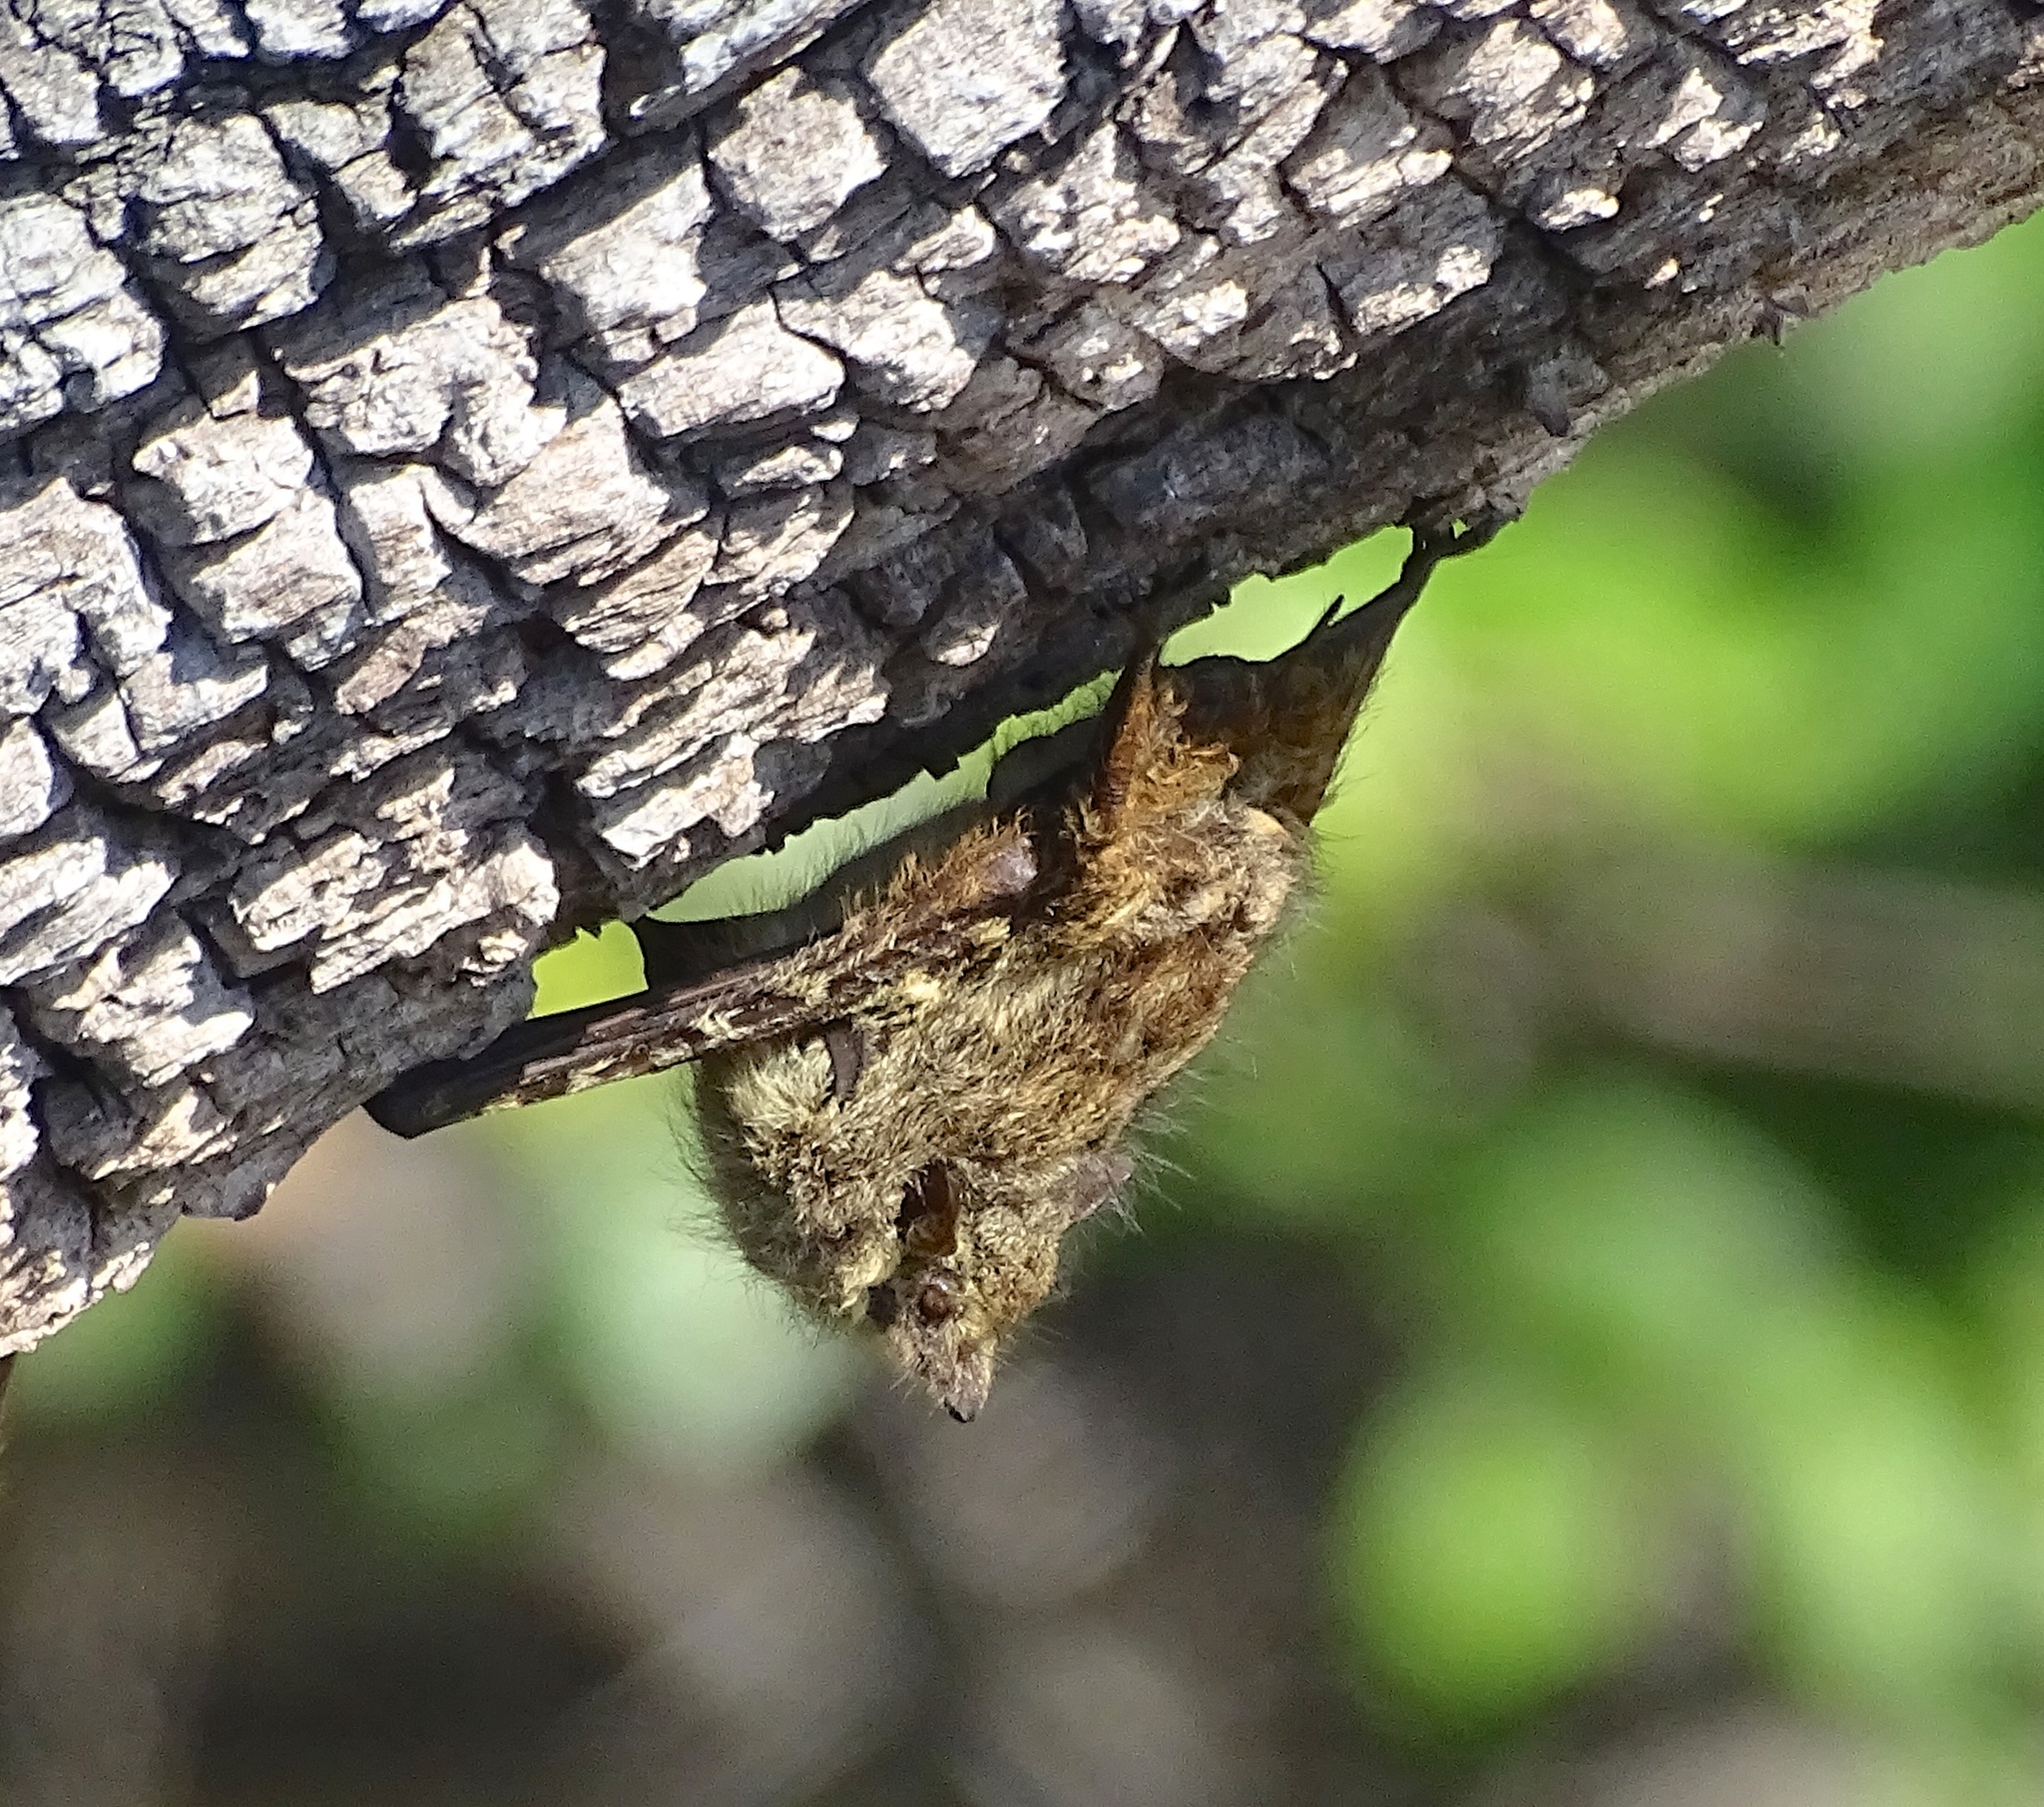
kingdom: Animalia
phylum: Chordata
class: Mammalia
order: Chiroptera
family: Emballonuridae
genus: Rhynchonycteris
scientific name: Rhynchonycteris naso
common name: Proboscis bat
